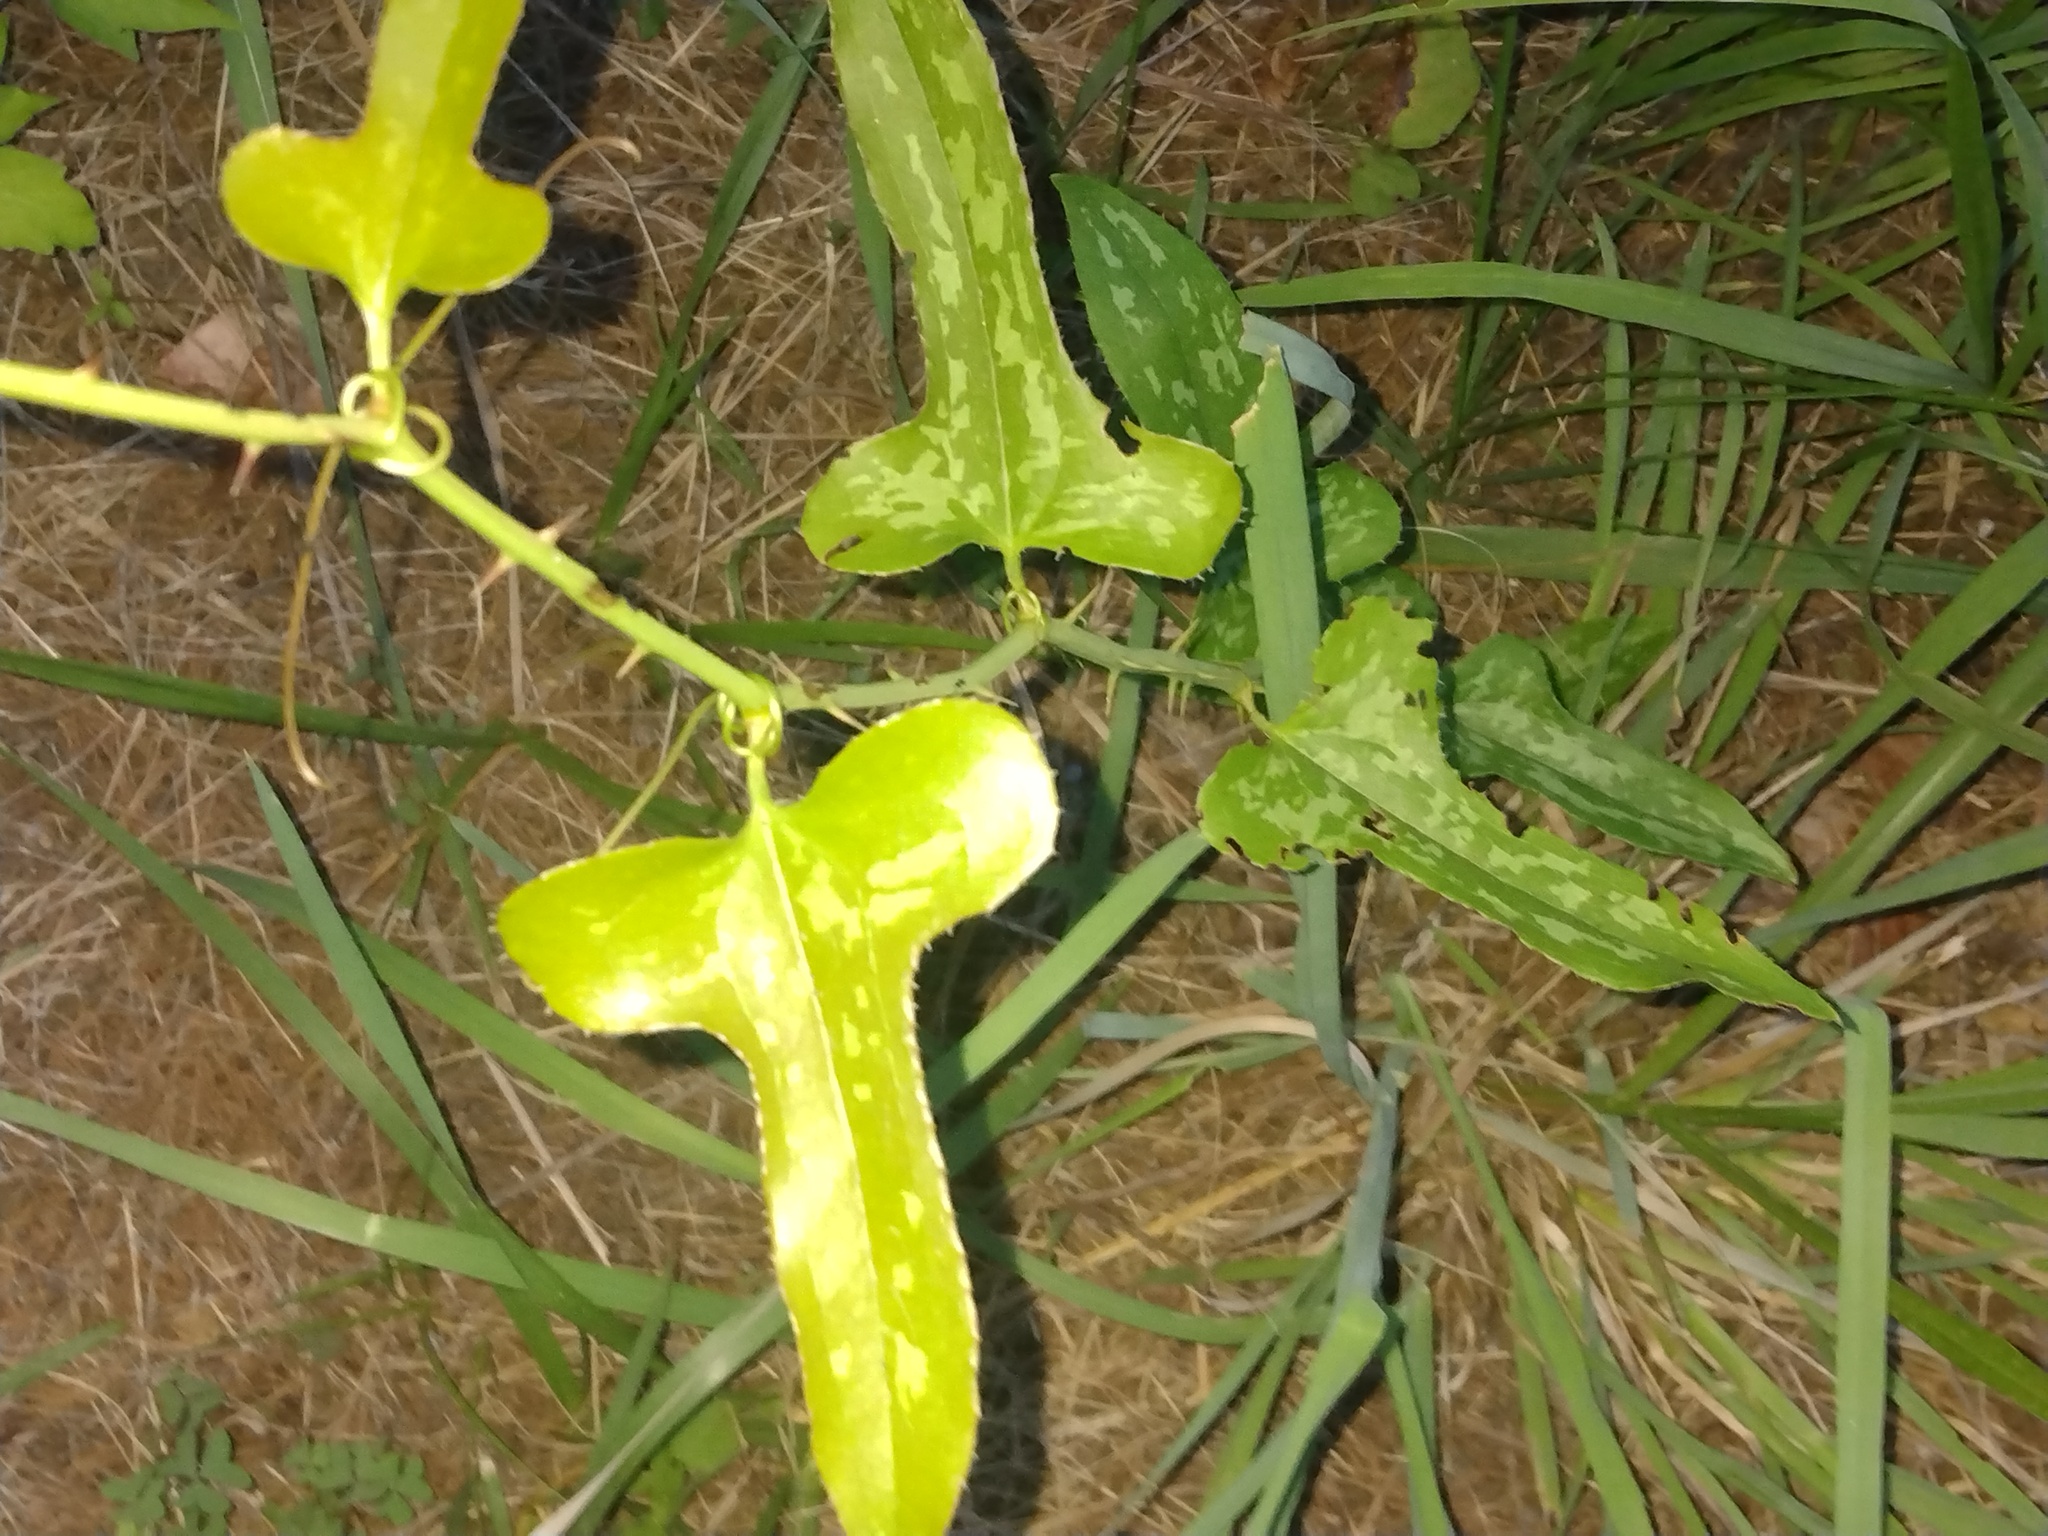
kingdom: Plantae
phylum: Tracheophyta
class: Liliopsida
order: Liliales
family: Smilacaceae
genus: Smilax
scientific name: Smilax bona-nox
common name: Catbrier
